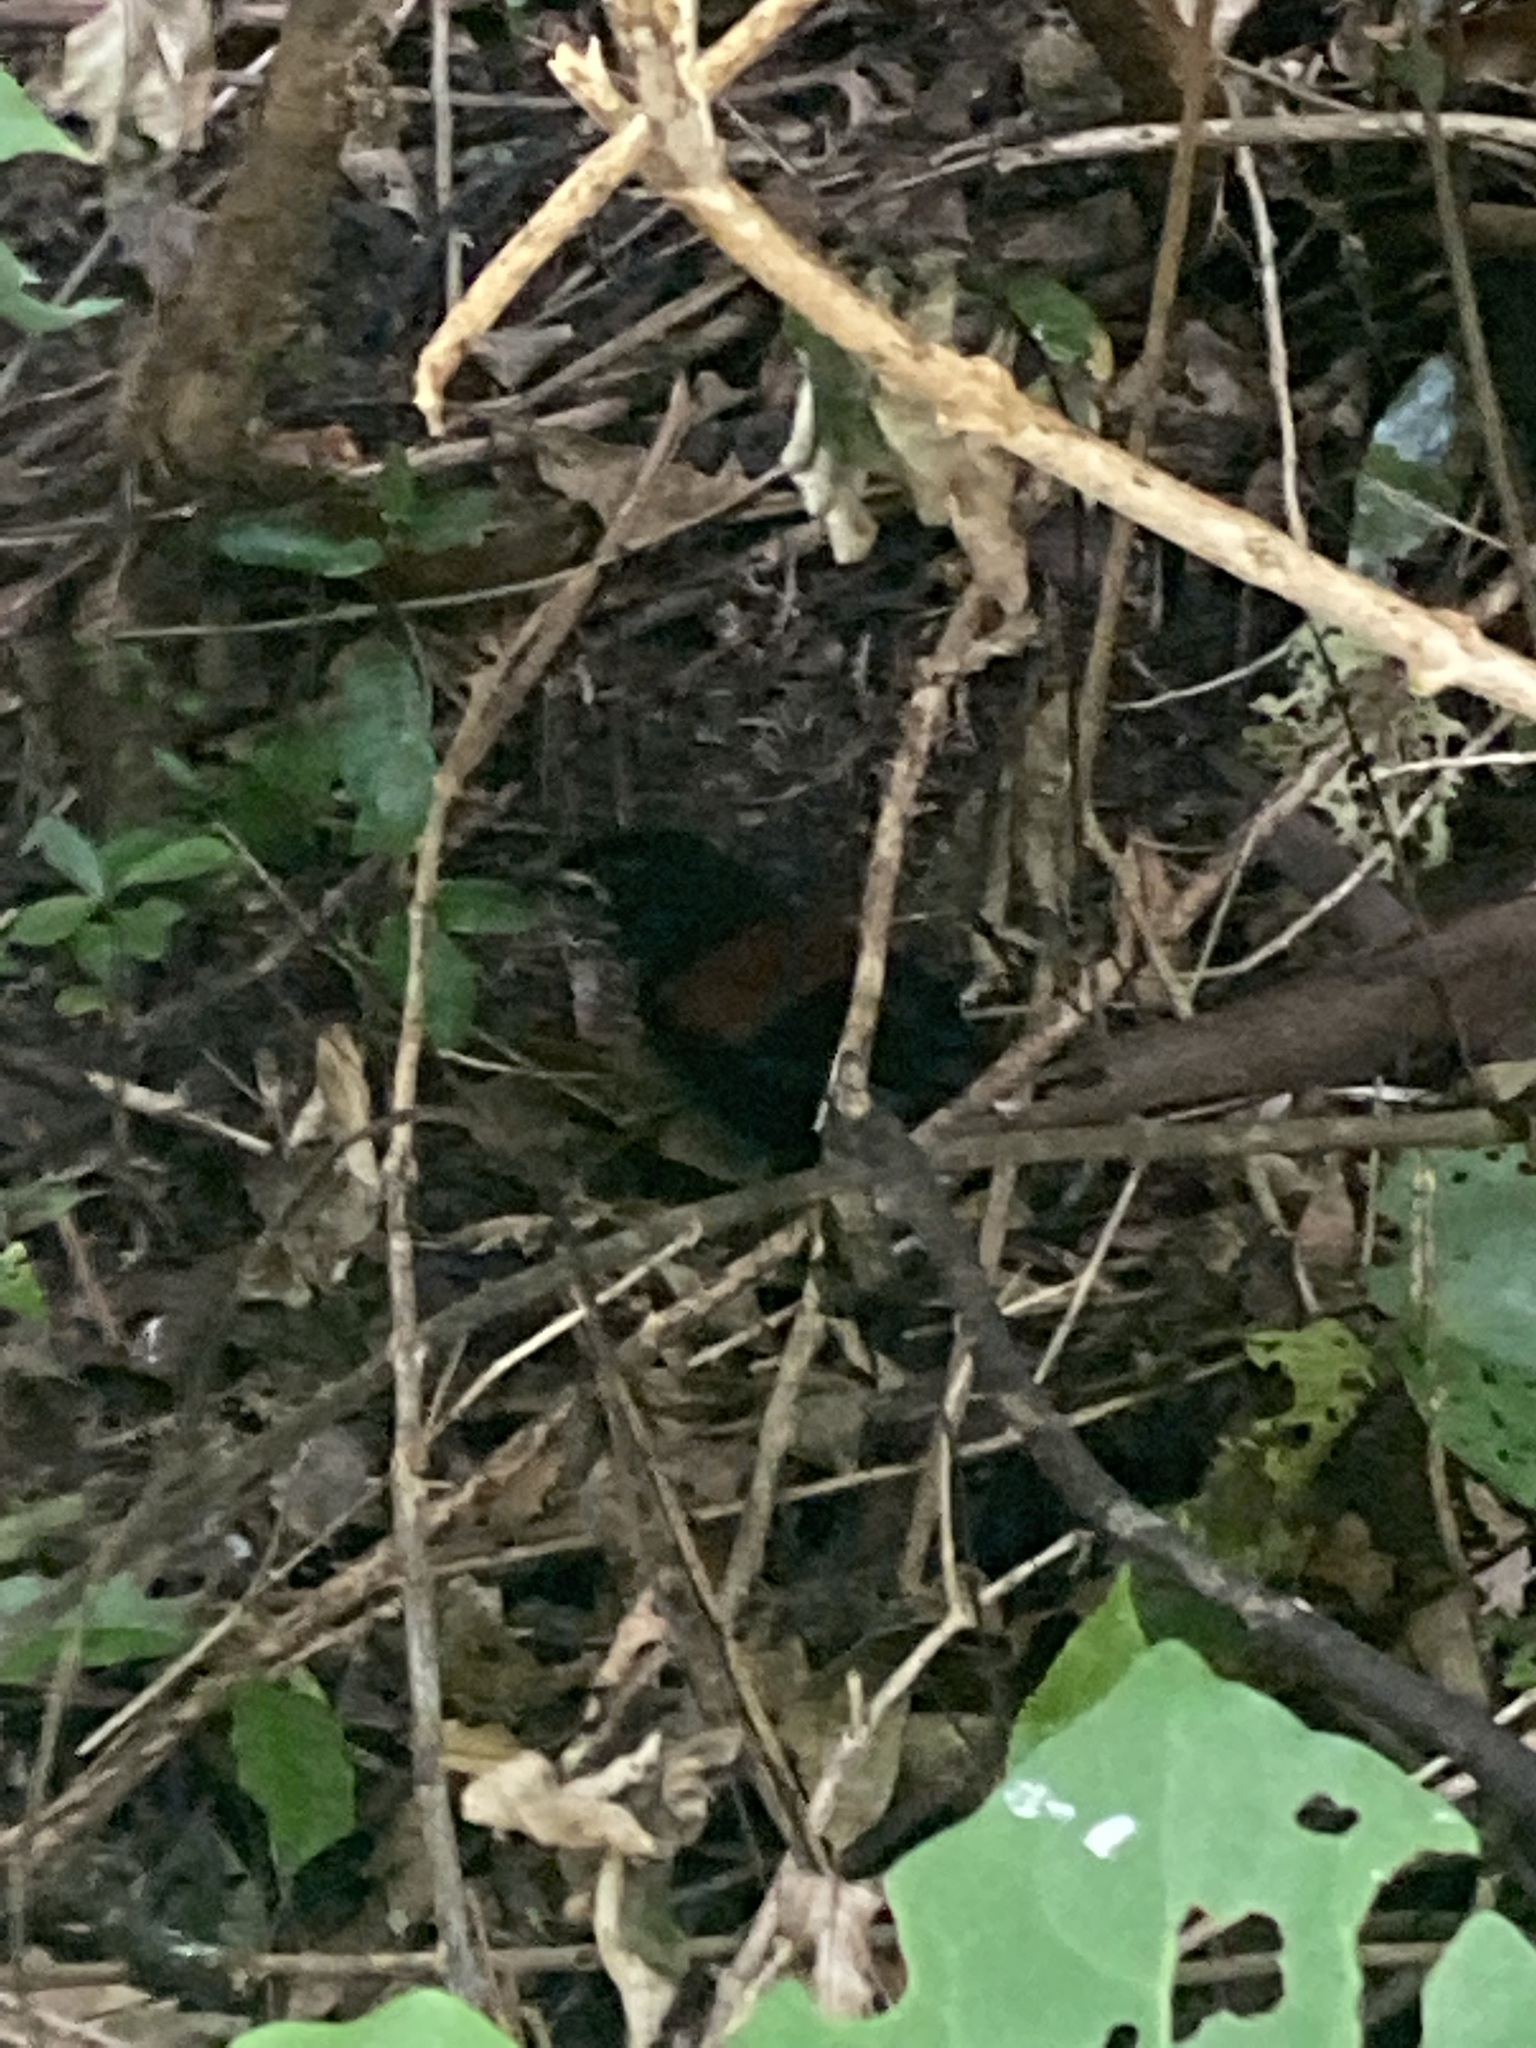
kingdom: Animalia
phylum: Chordata
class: Aves
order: Passeriformes
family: Callaeatidae
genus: Philesturnus
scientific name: Philesturnus carunculatus
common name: South island saddleback
